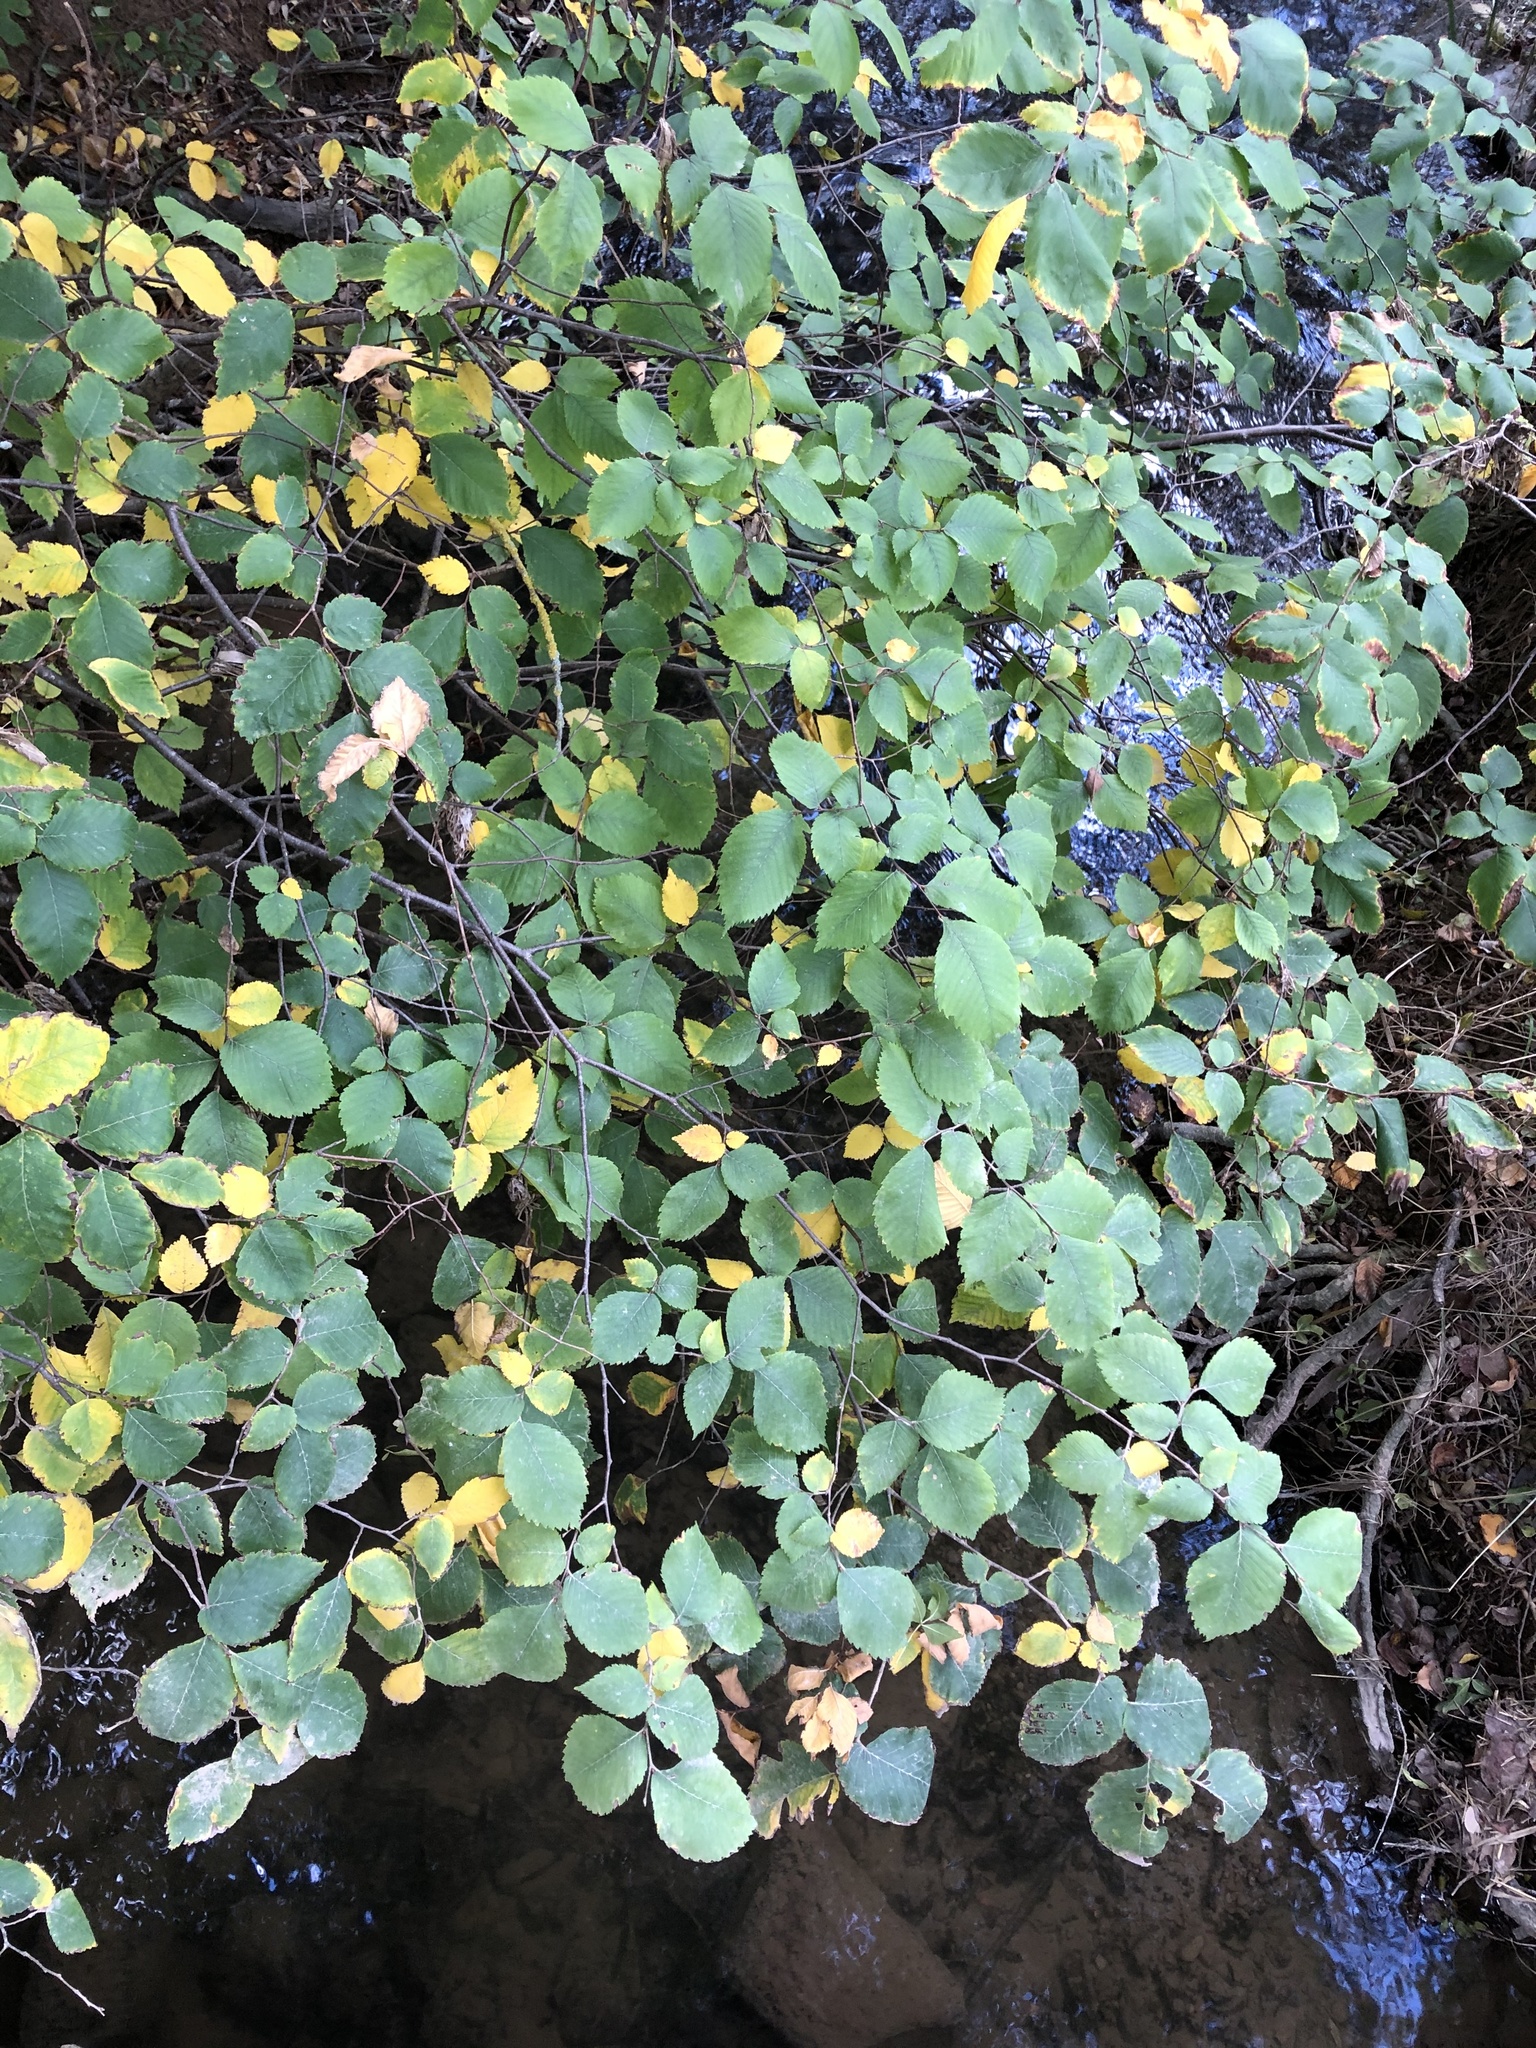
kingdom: Plantae
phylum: Tracheophyta
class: Magnoliopsida
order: Rosales
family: Ulmaceae
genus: Ulmus
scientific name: Ulmus minor
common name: Small-leaved elm
